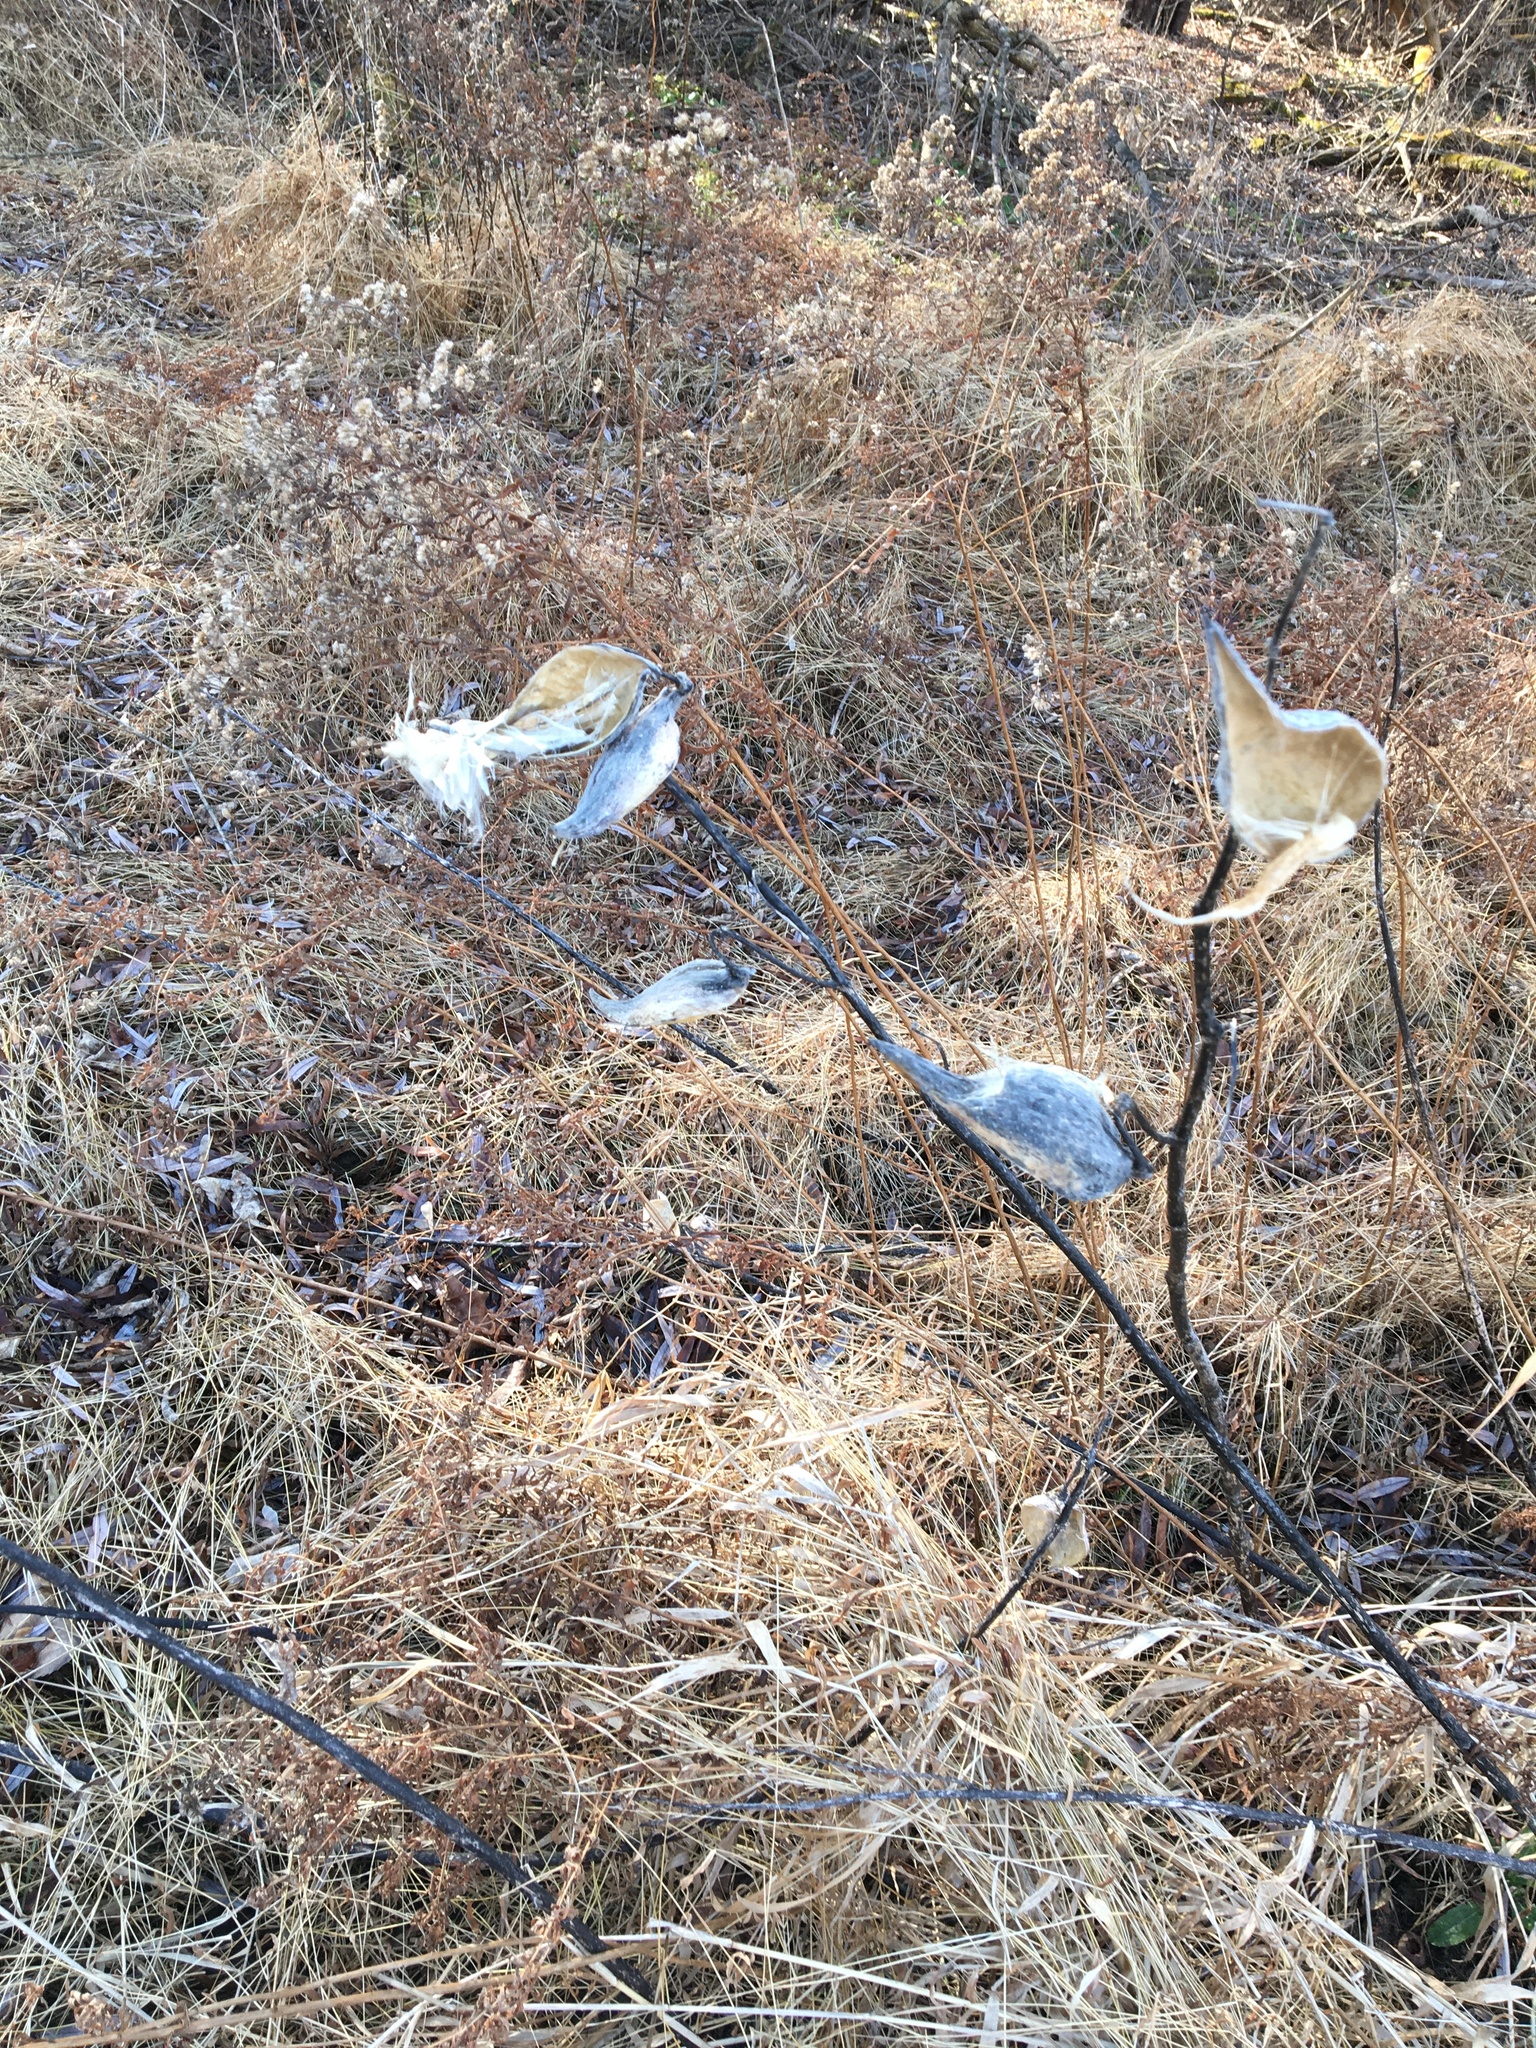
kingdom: Plantae
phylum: Tracheophyta
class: Magnoliopsida
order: Gentianales
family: Apocynaceae
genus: Asclepias
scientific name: Asclepias syriaca
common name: Common milkweed
